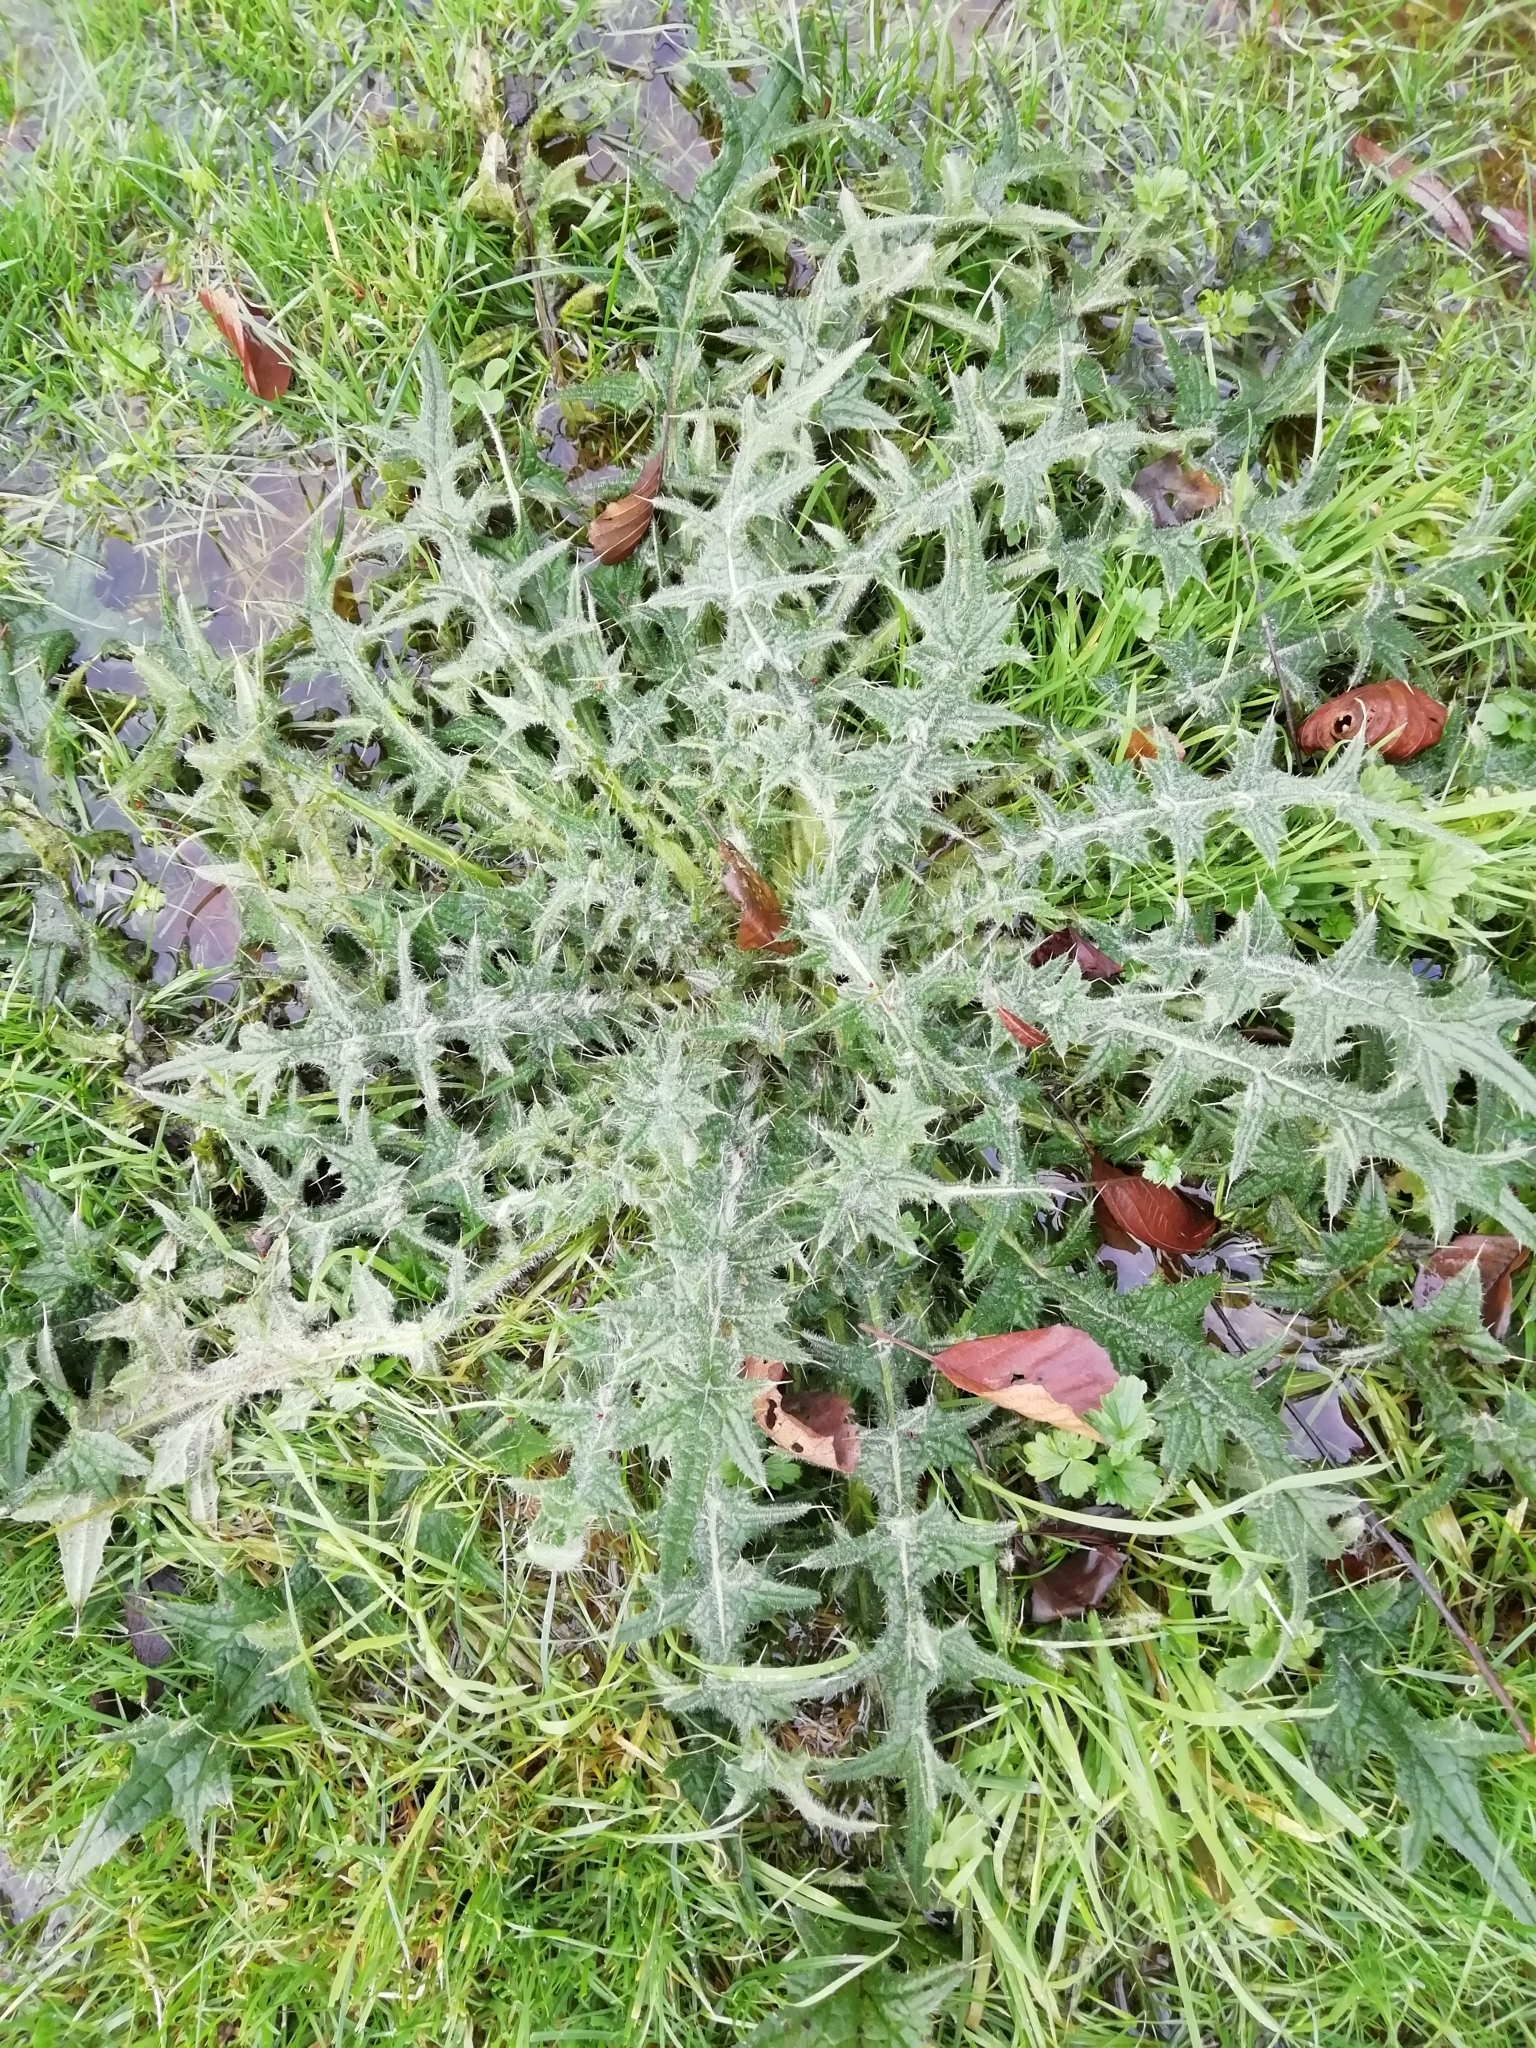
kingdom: Plantae
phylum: Tracheophyta
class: Magnoliopsida
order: Asterales
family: Asteraceae
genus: Cirsium
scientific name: Cirsium vulgare
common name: Bull thistle
